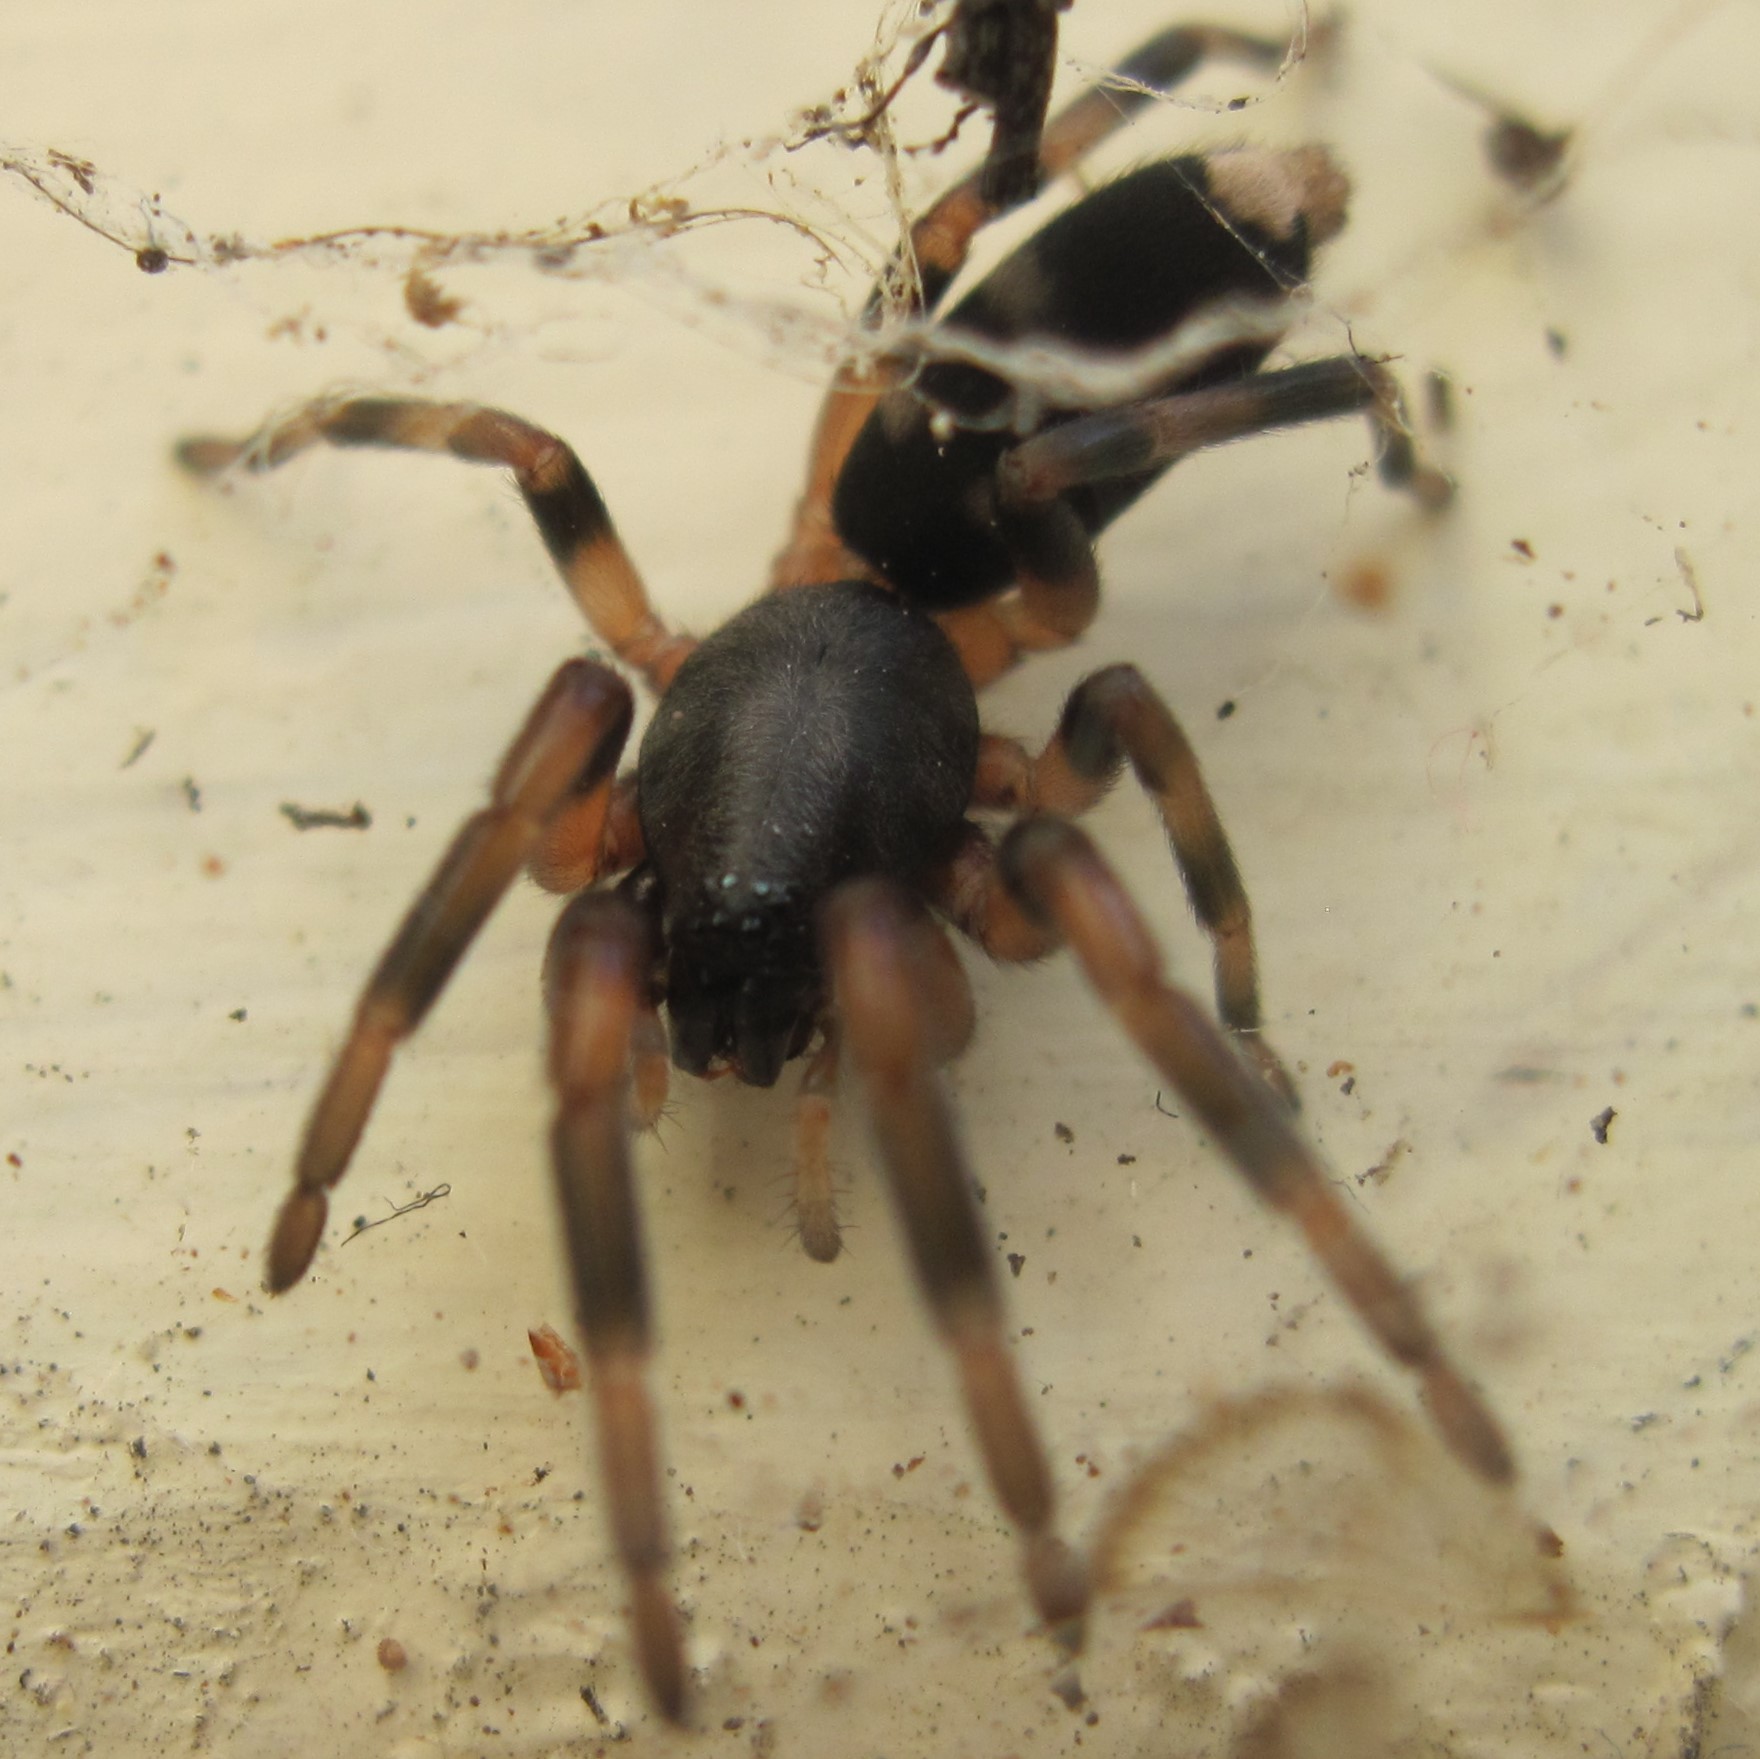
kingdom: Animalia
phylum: Arthropoda
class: Arachnida
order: Araneae
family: Lamponidae
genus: Lampona
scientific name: Lampona murina
